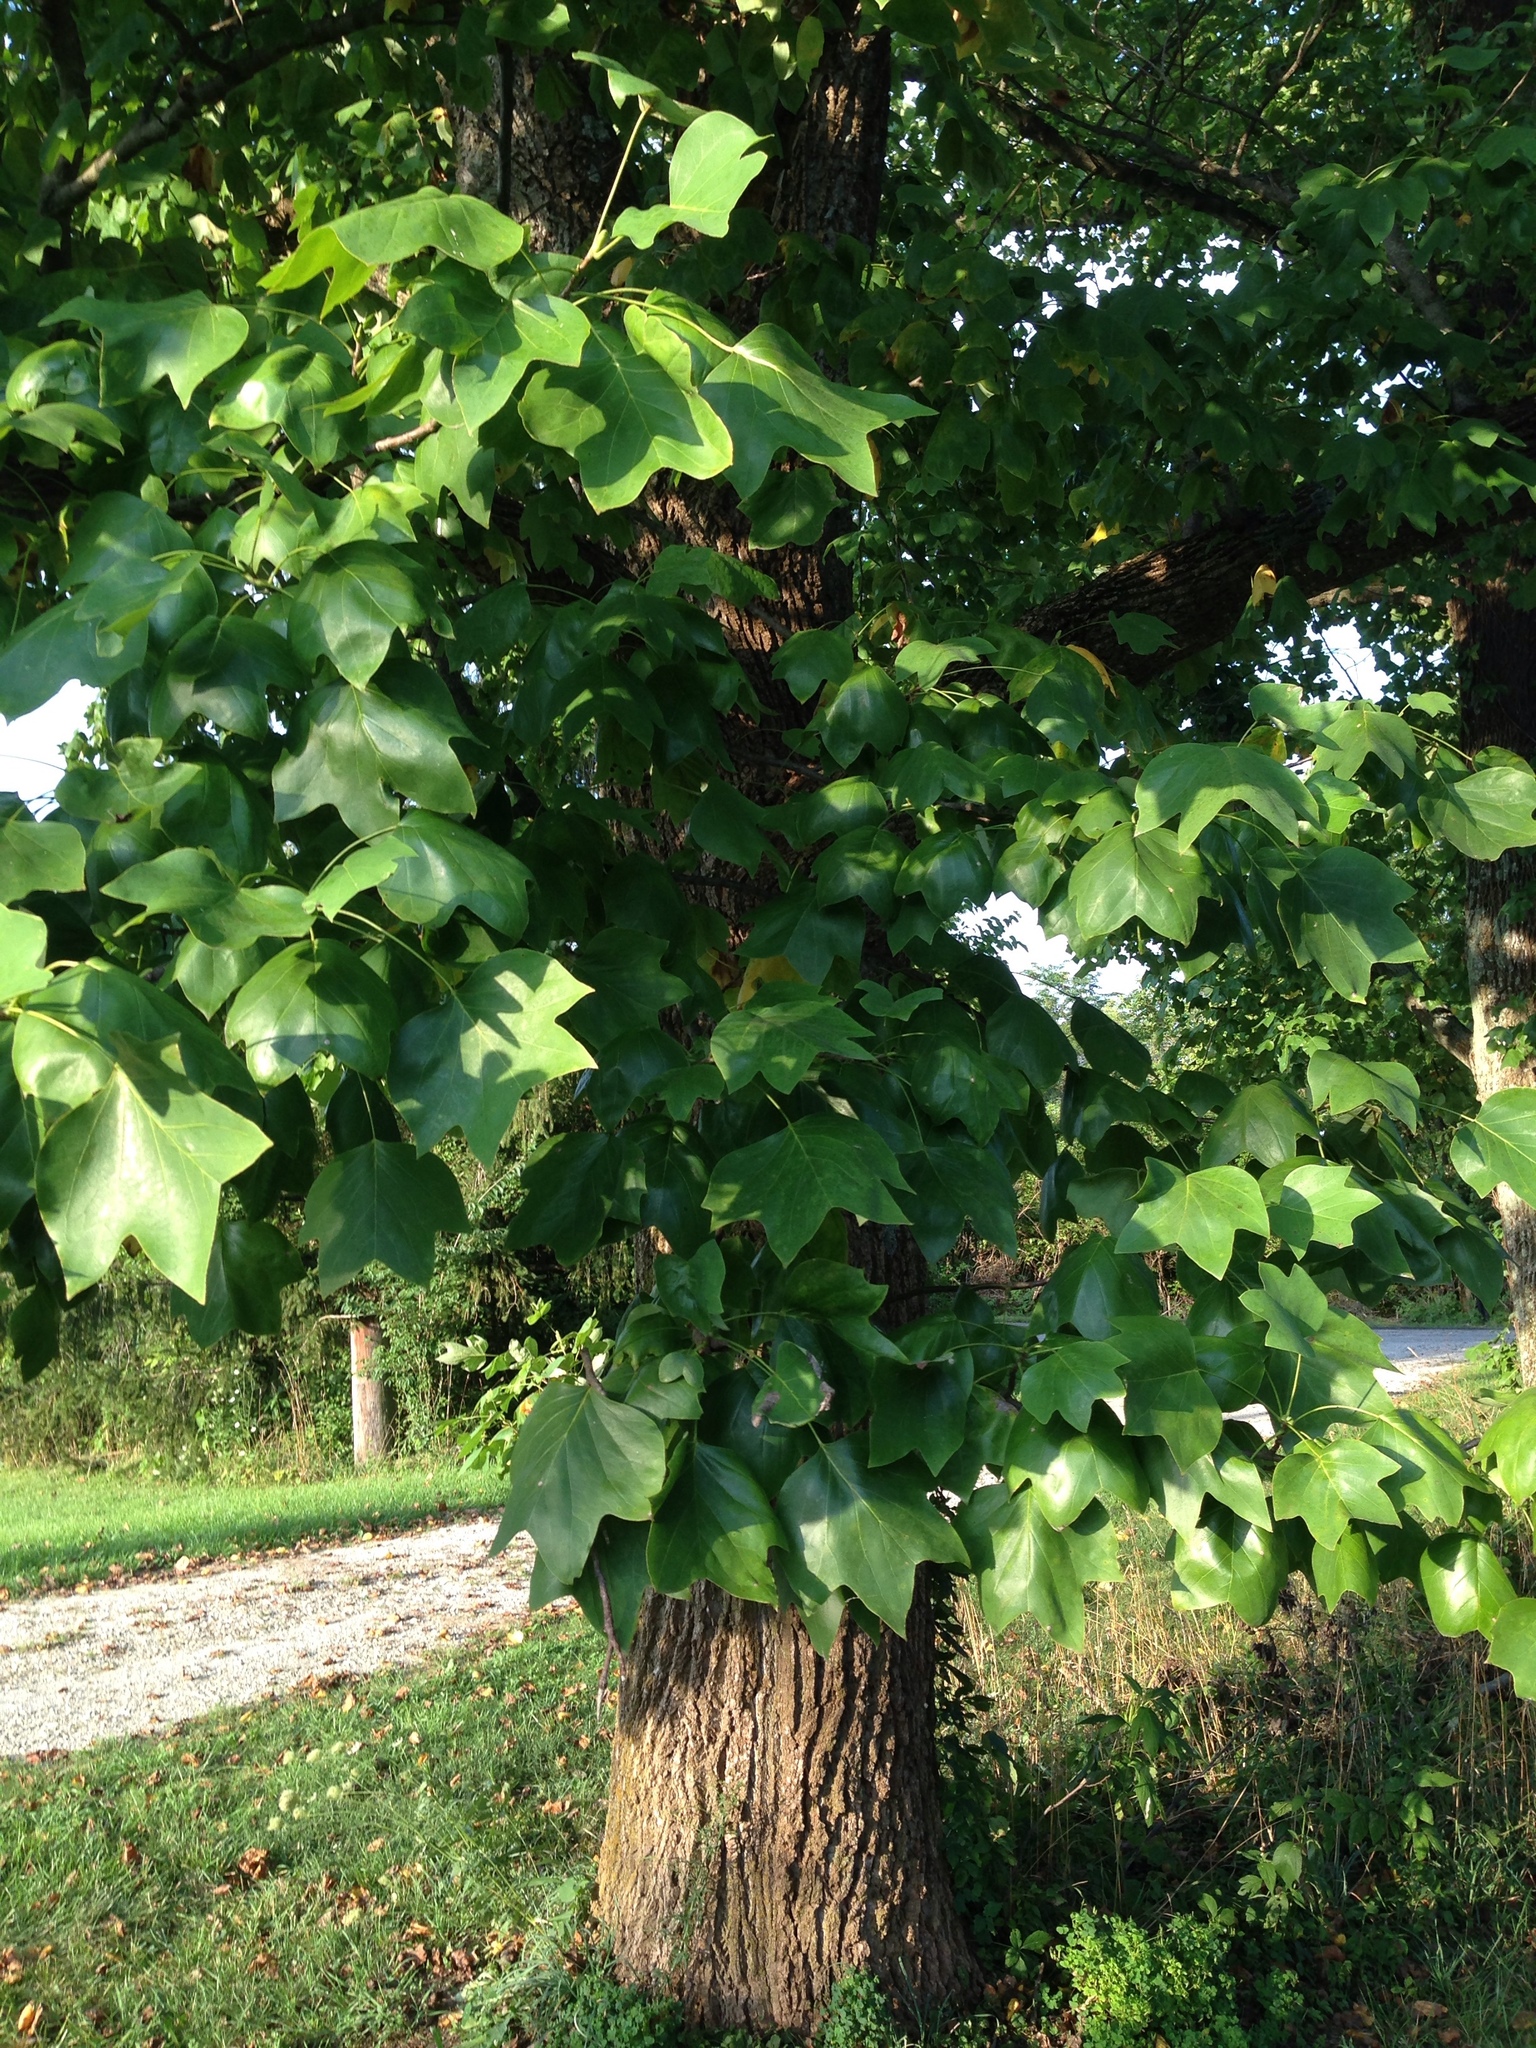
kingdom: Plantae
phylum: Tracheophyta
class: Magnoliopsida
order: Magnoliales
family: Magnoliaceae
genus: Liriodendron
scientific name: Liriodendron tulipifera
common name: Tulip tree
